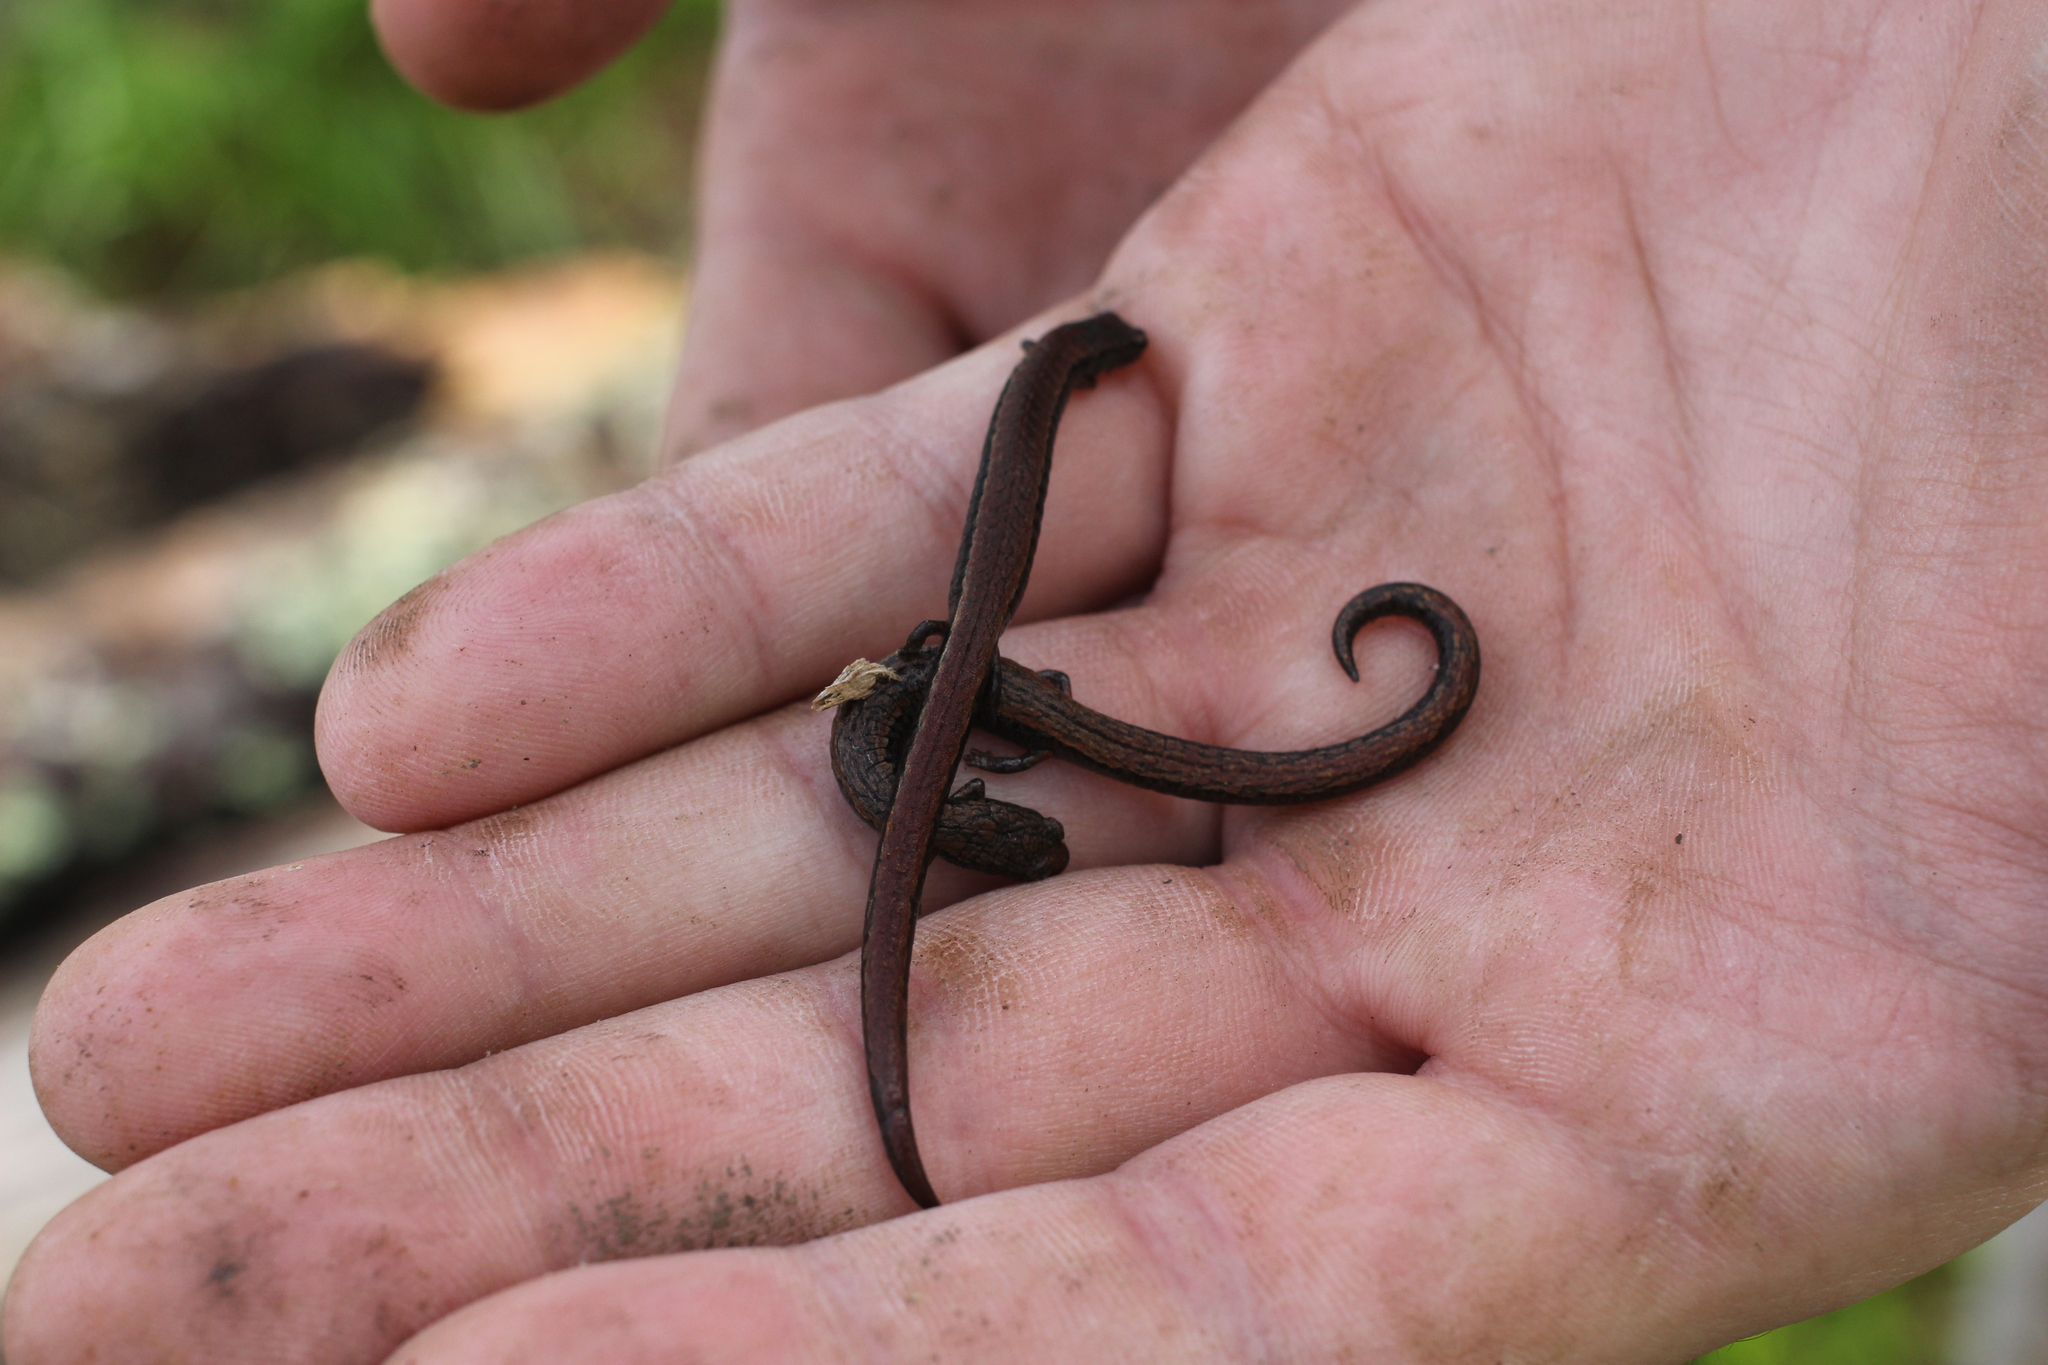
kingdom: Animalia
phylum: Chordata
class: Amphibia
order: Caudata
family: Plethodontidae
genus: Batrachoseps
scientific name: Batrachoseps attenuatus
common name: California slender salamander
